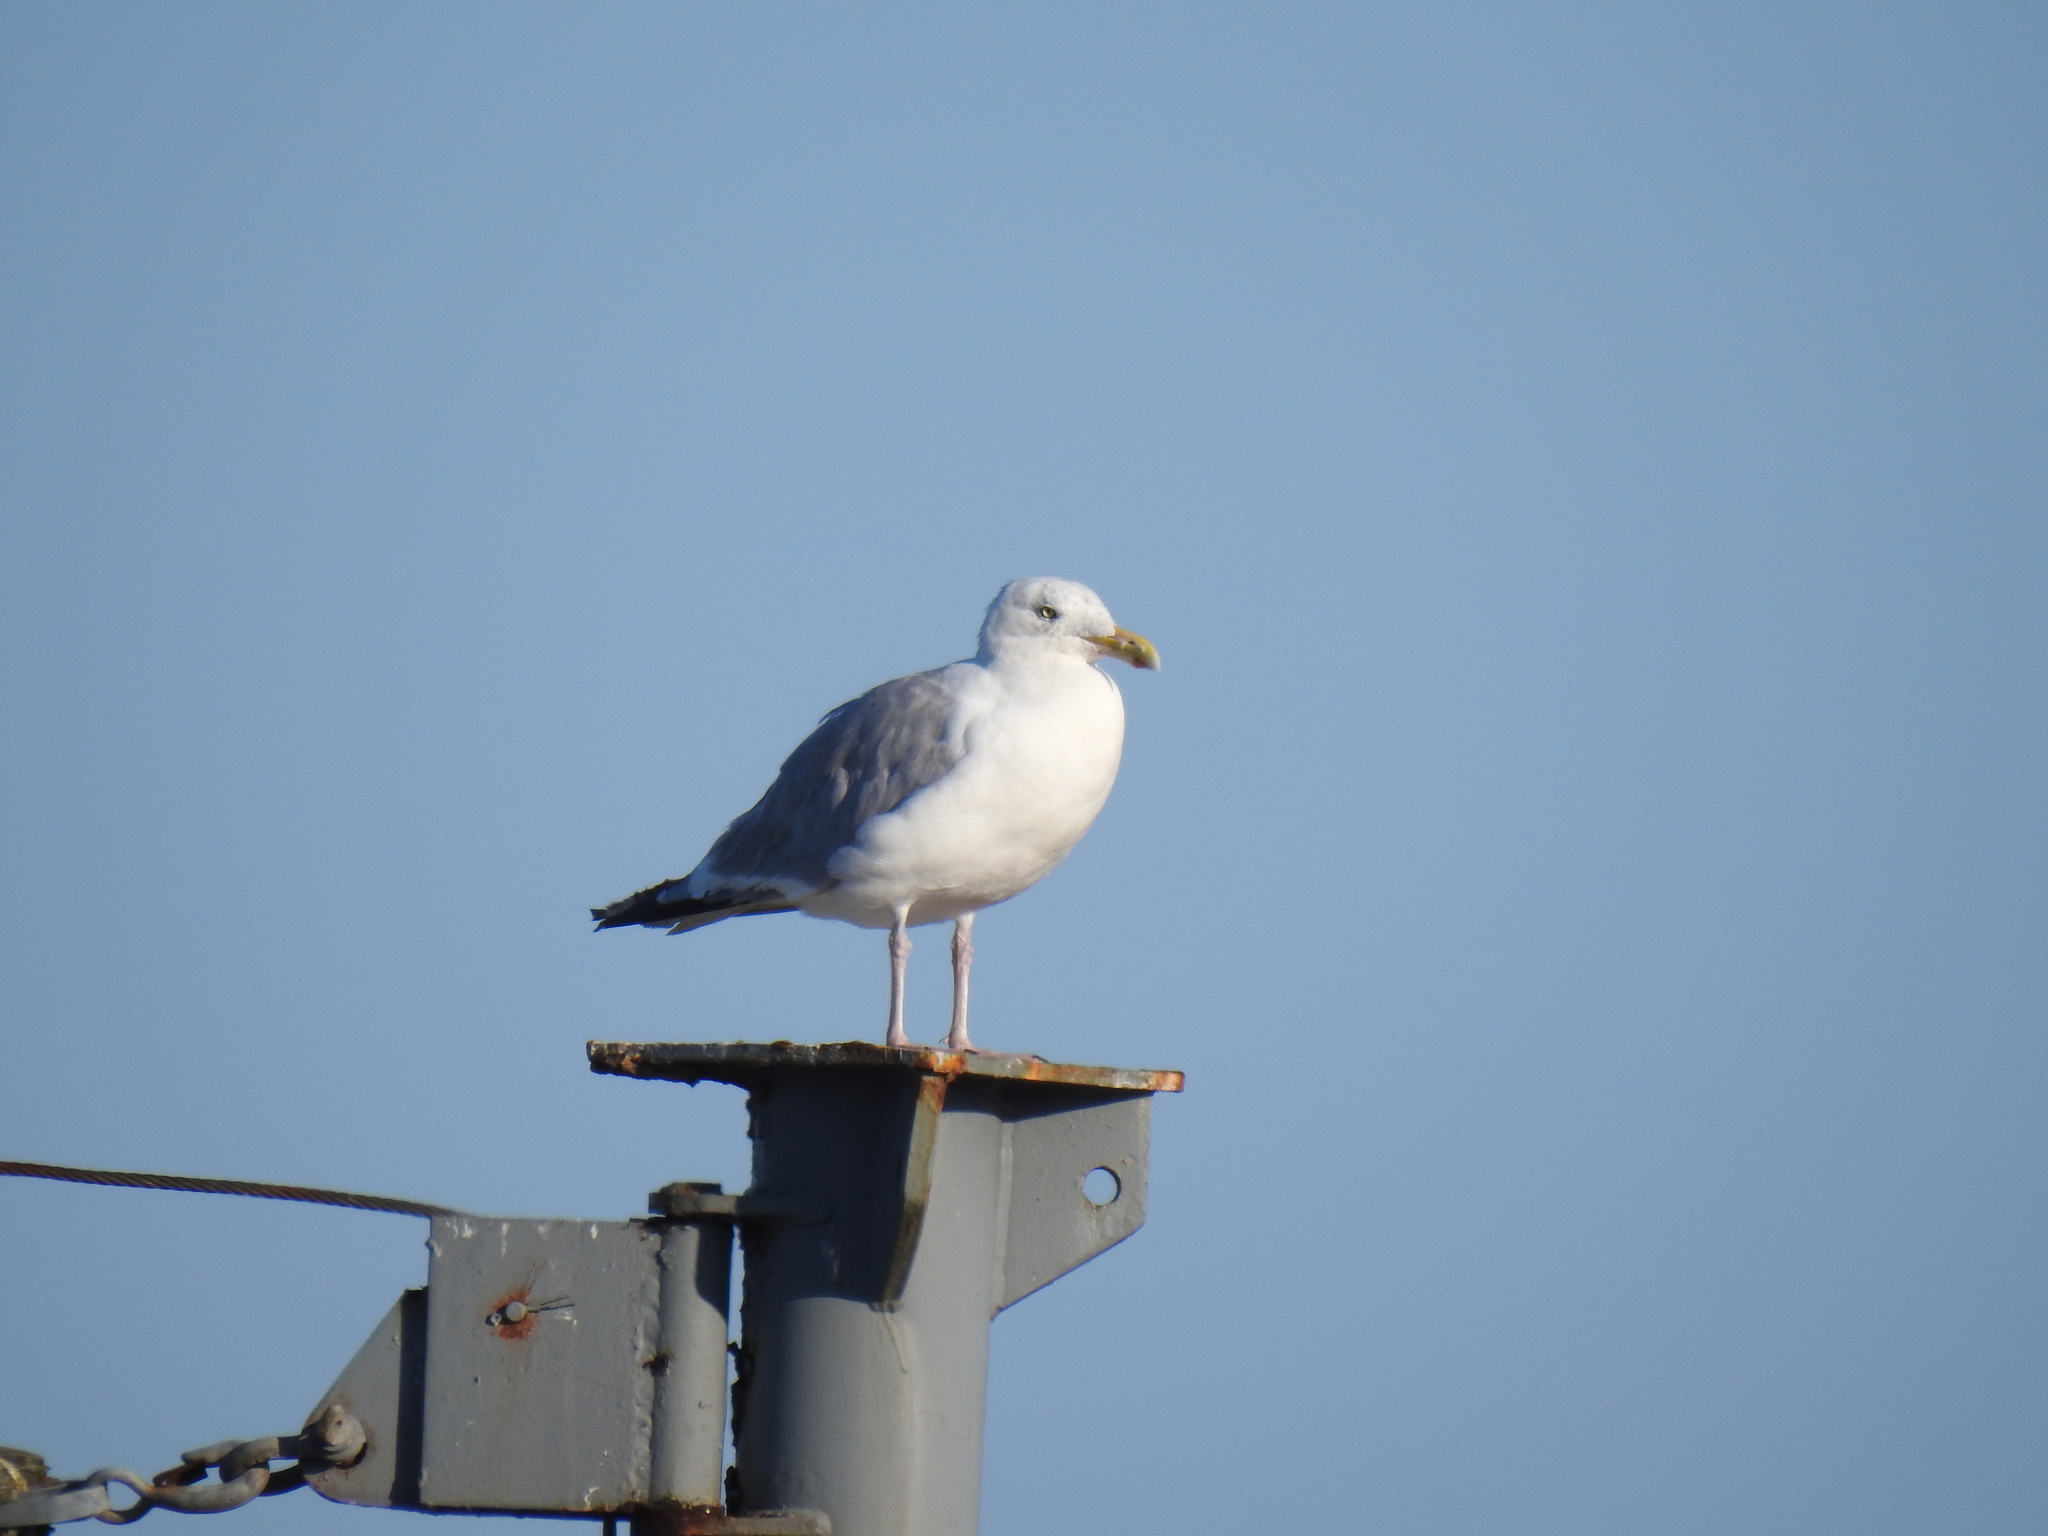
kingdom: Animalia
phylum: Chordata
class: Aves
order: Charadriiformes
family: Laridae
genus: Larus
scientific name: Larus argentatus
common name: Herring gull
